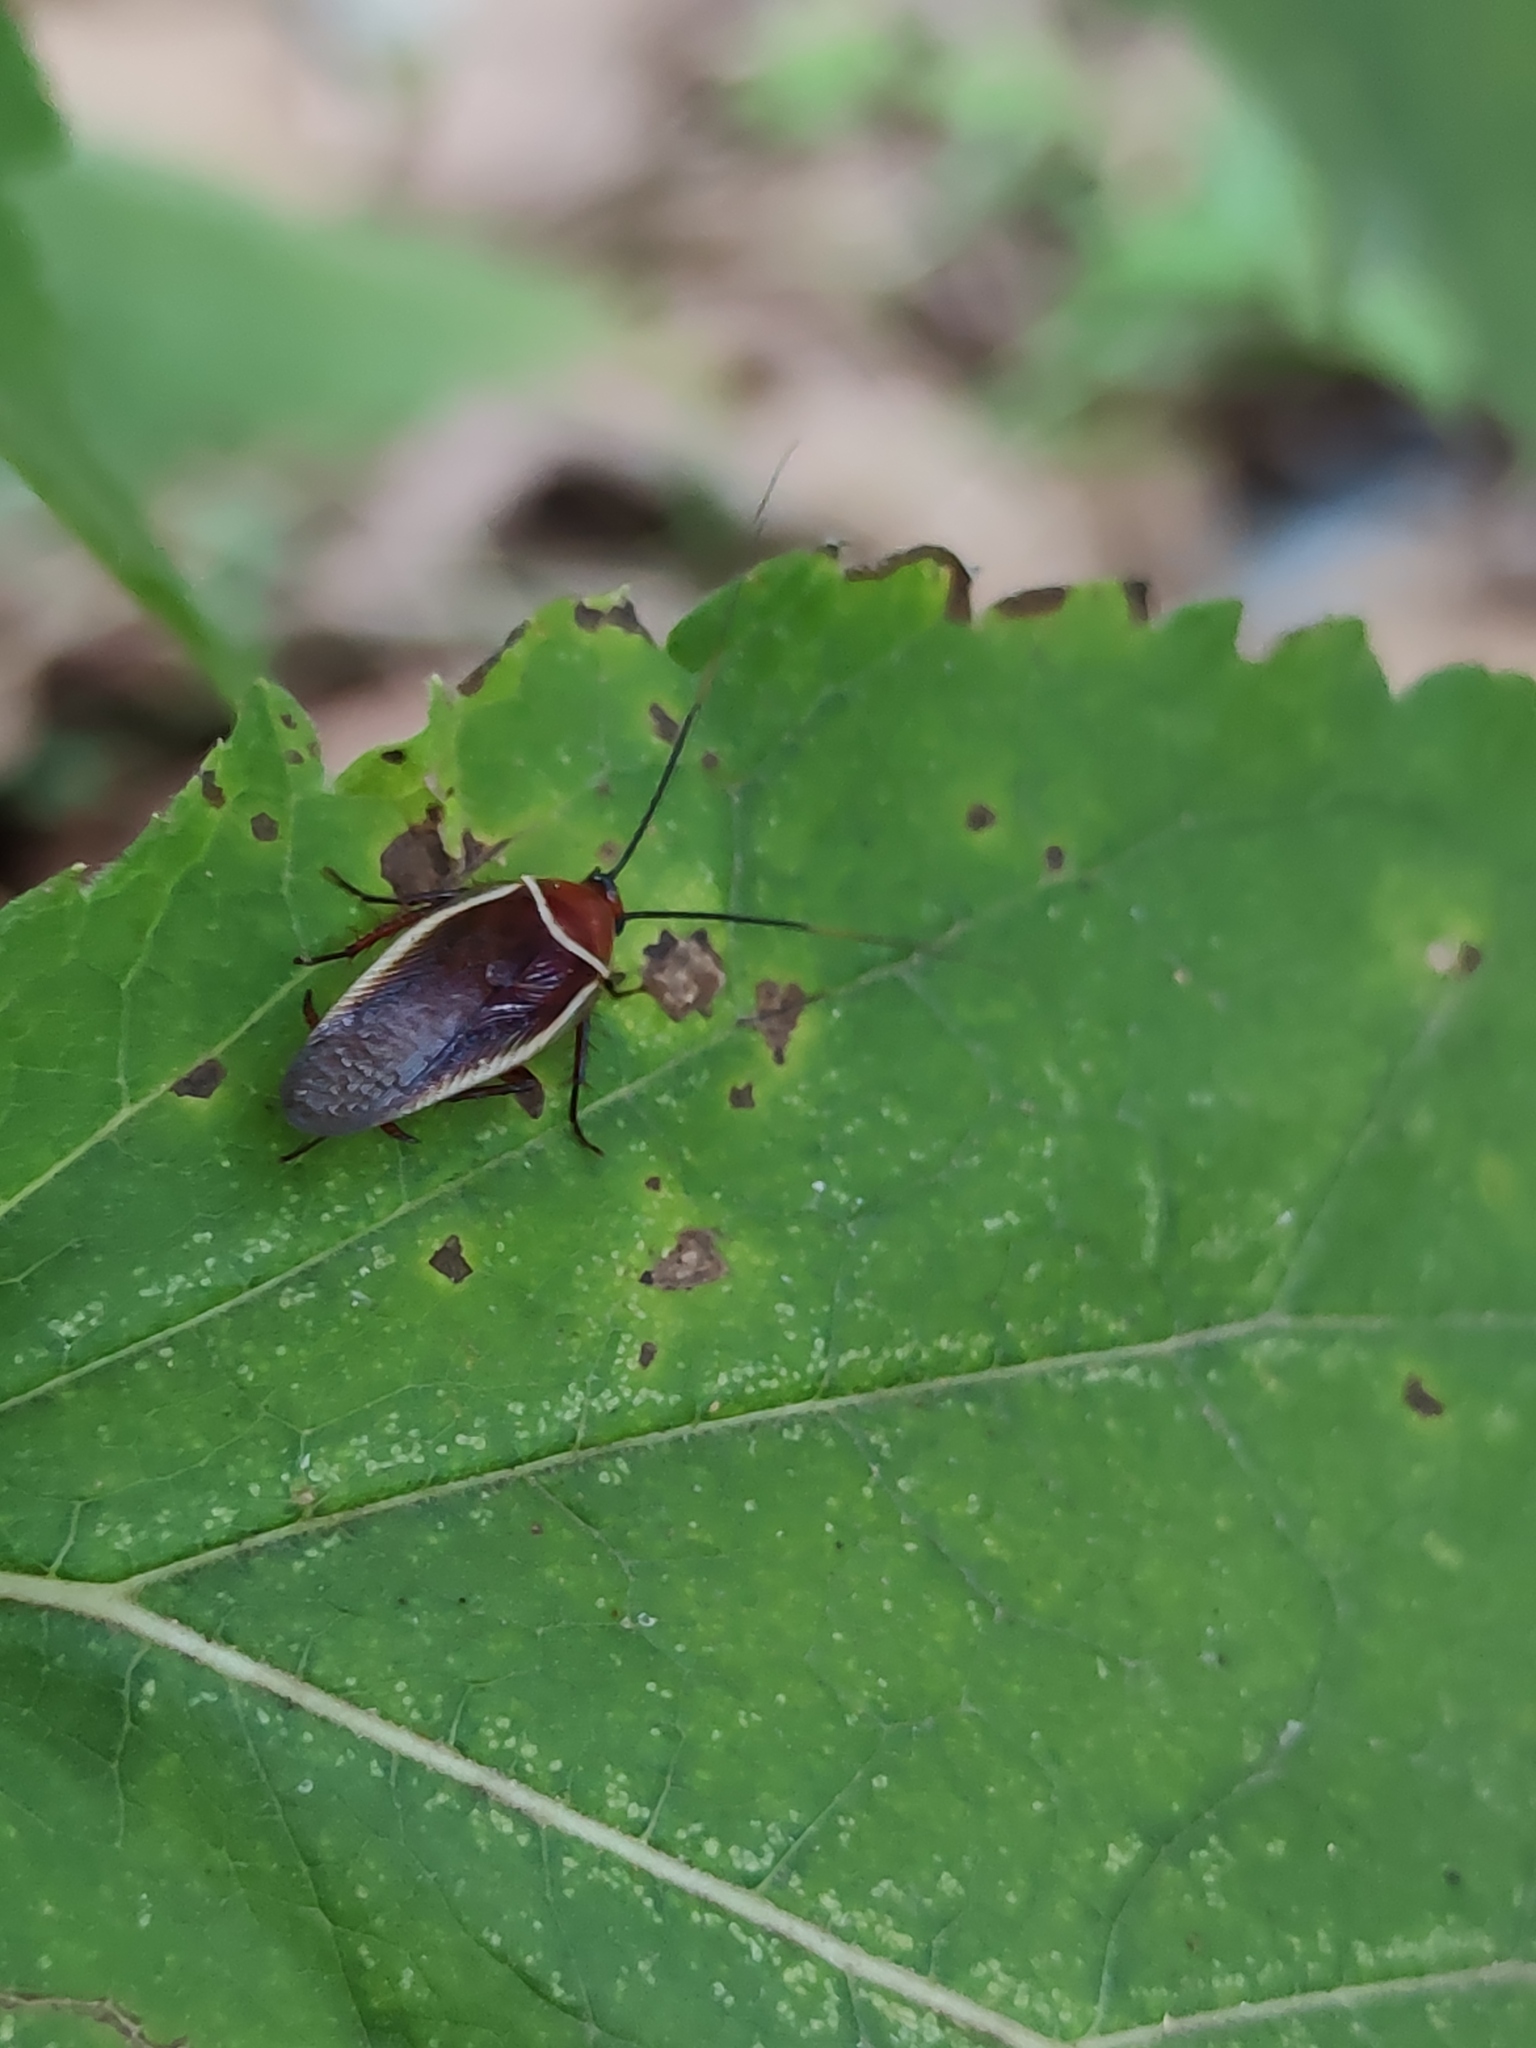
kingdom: Animalia
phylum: Arthropoda
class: Insecta
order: Blattodea
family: Ectobiidae
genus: Pseudomops
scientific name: Pseudomops septentrionalis
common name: Pale-bordered field cockroach
